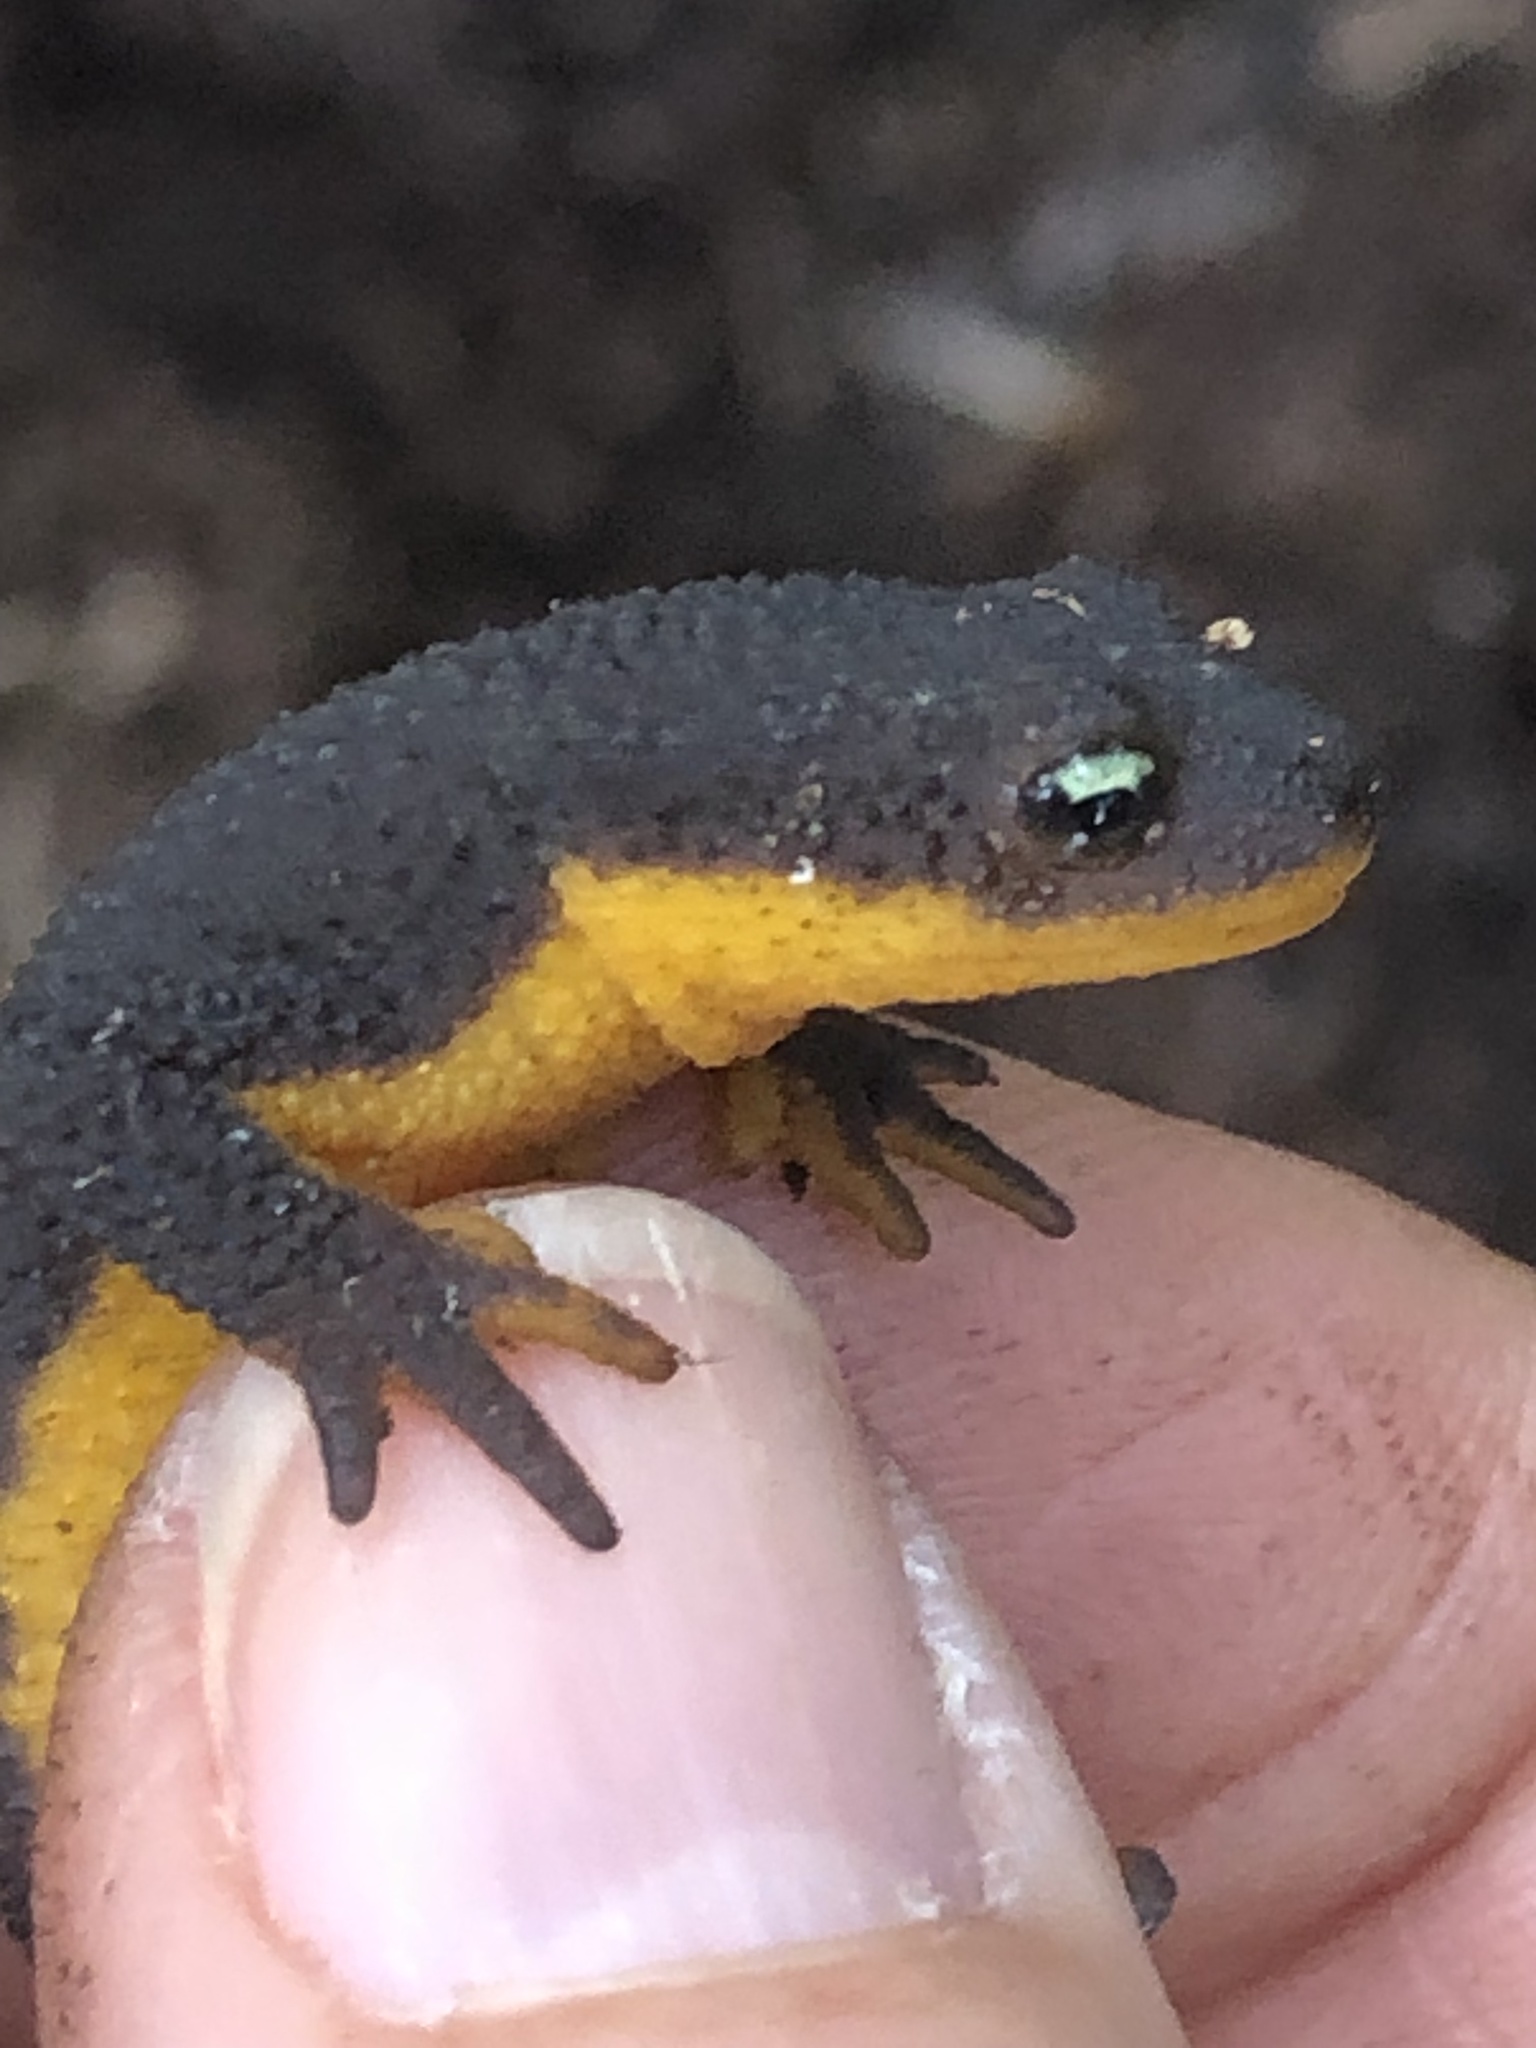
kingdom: Animalia
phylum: Chordata
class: Amphibia
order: Caudata
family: Salamandridae
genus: Taricha
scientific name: Taricha granulosa
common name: Roughskin newt
